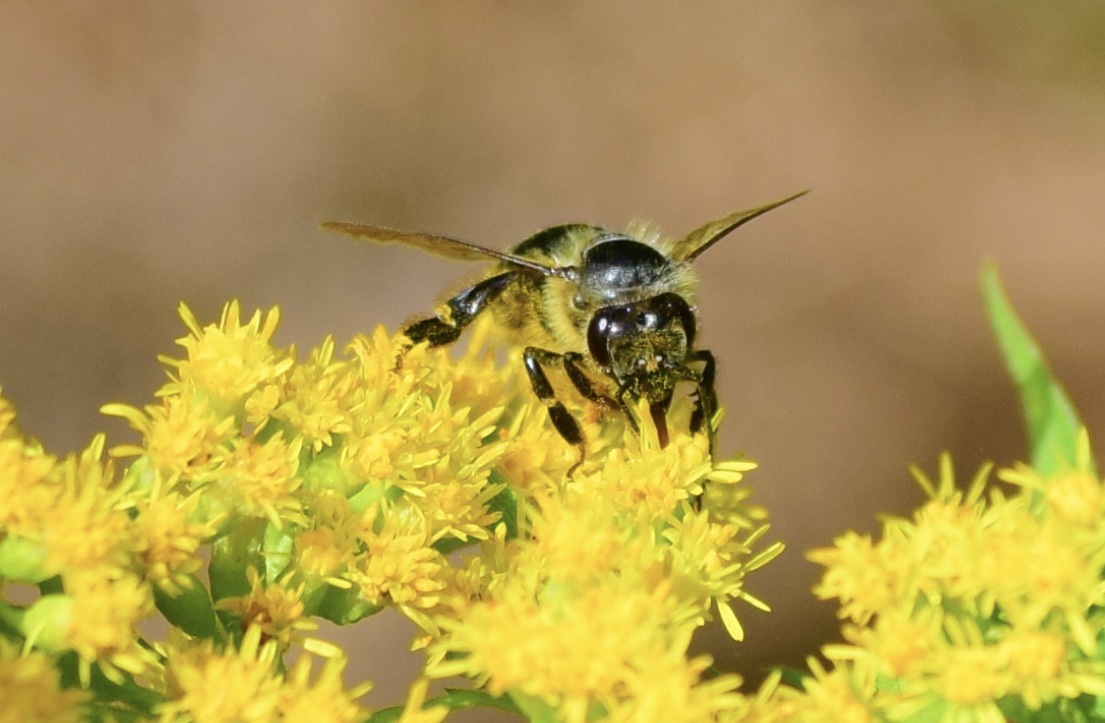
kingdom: Animalia
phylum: Arthropoda
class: Insecta
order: Hymenoptera
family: Apidae
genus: Apis
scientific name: Apis mellifera
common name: Honey bee
